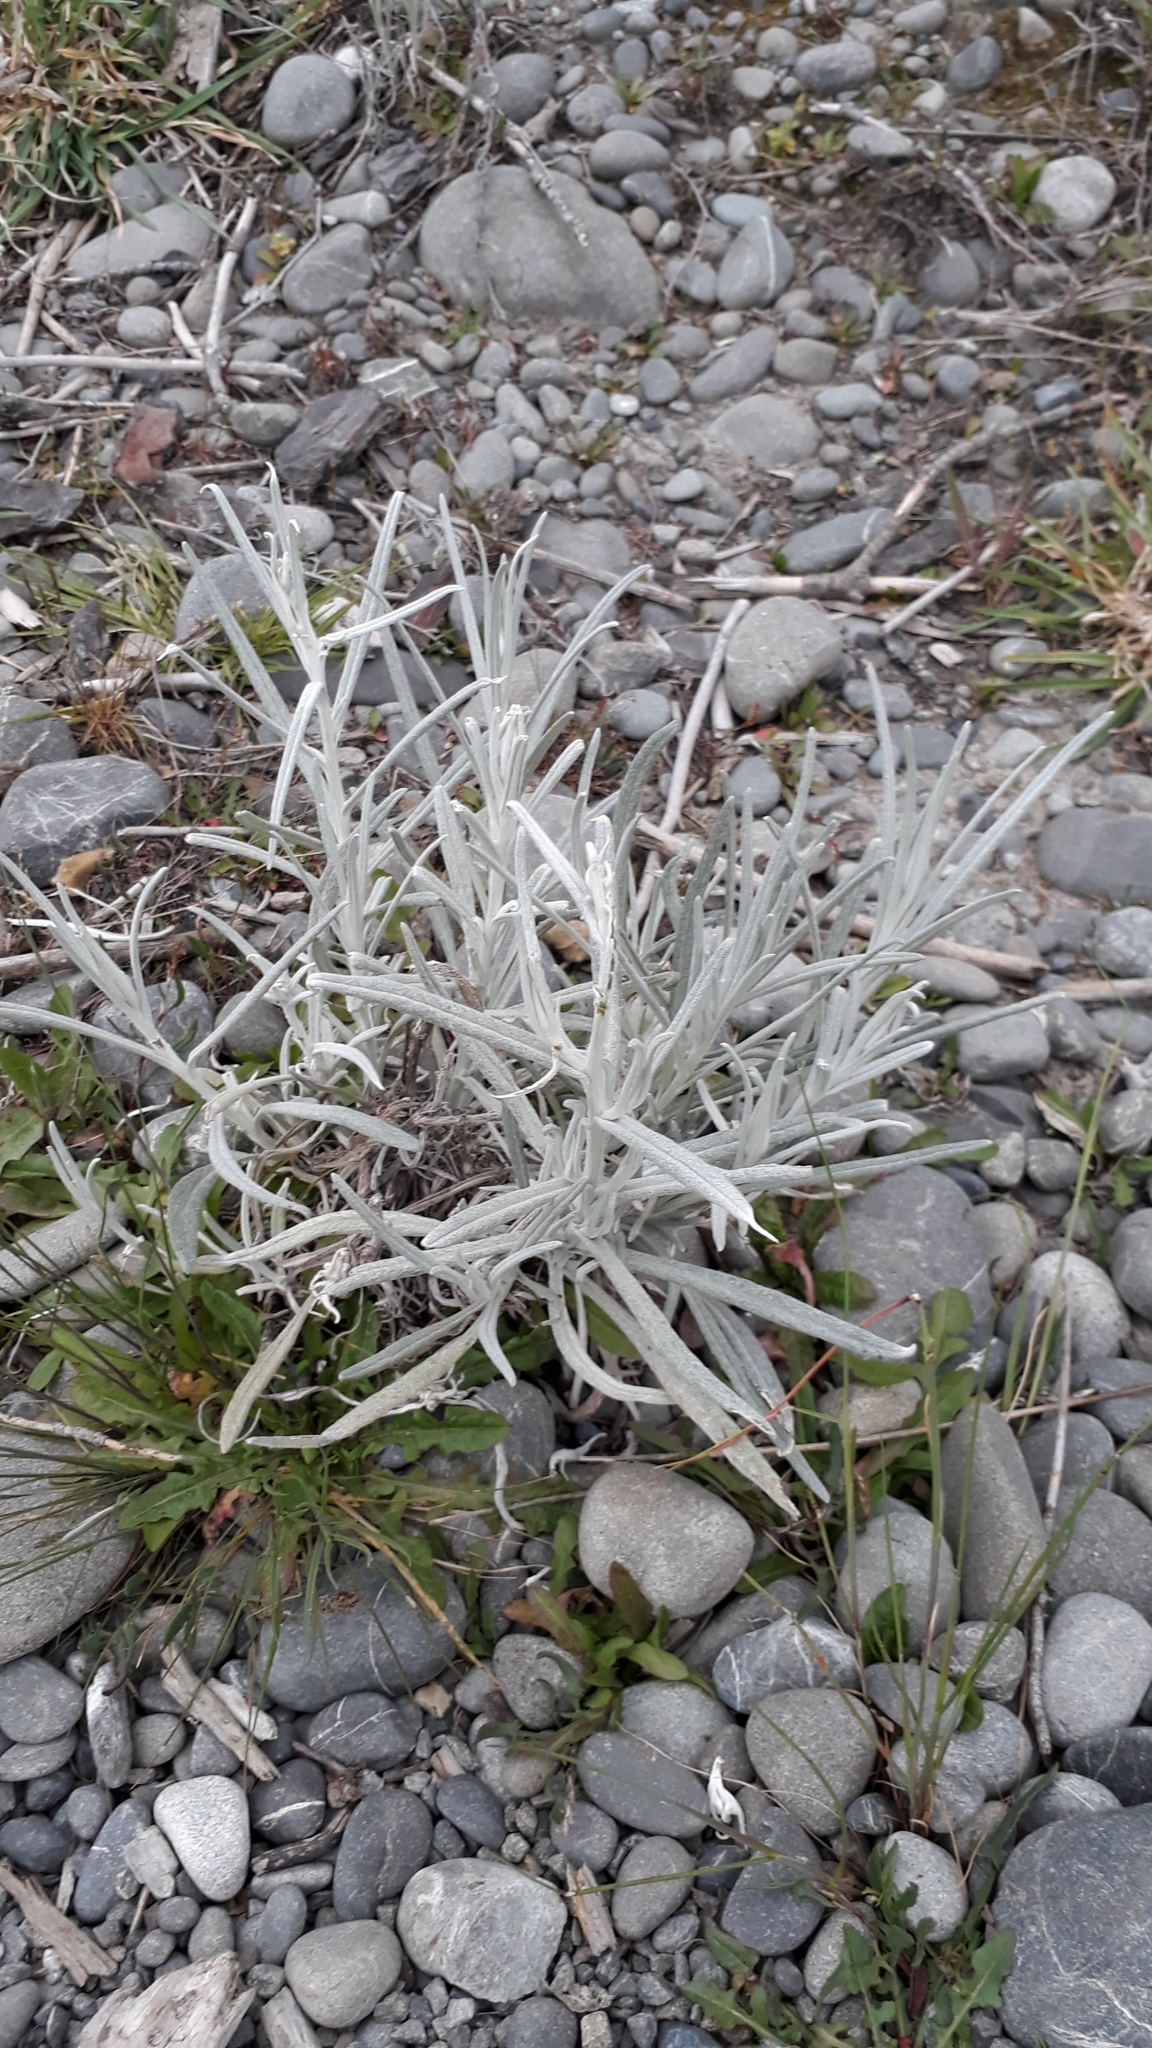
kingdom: Plantae
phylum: Tracheophyta
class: Magnoliopsida
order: Asterales
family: Asteraceae
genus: Senecio
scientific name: Senecio quadridentatus
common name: Cotton fireweed
